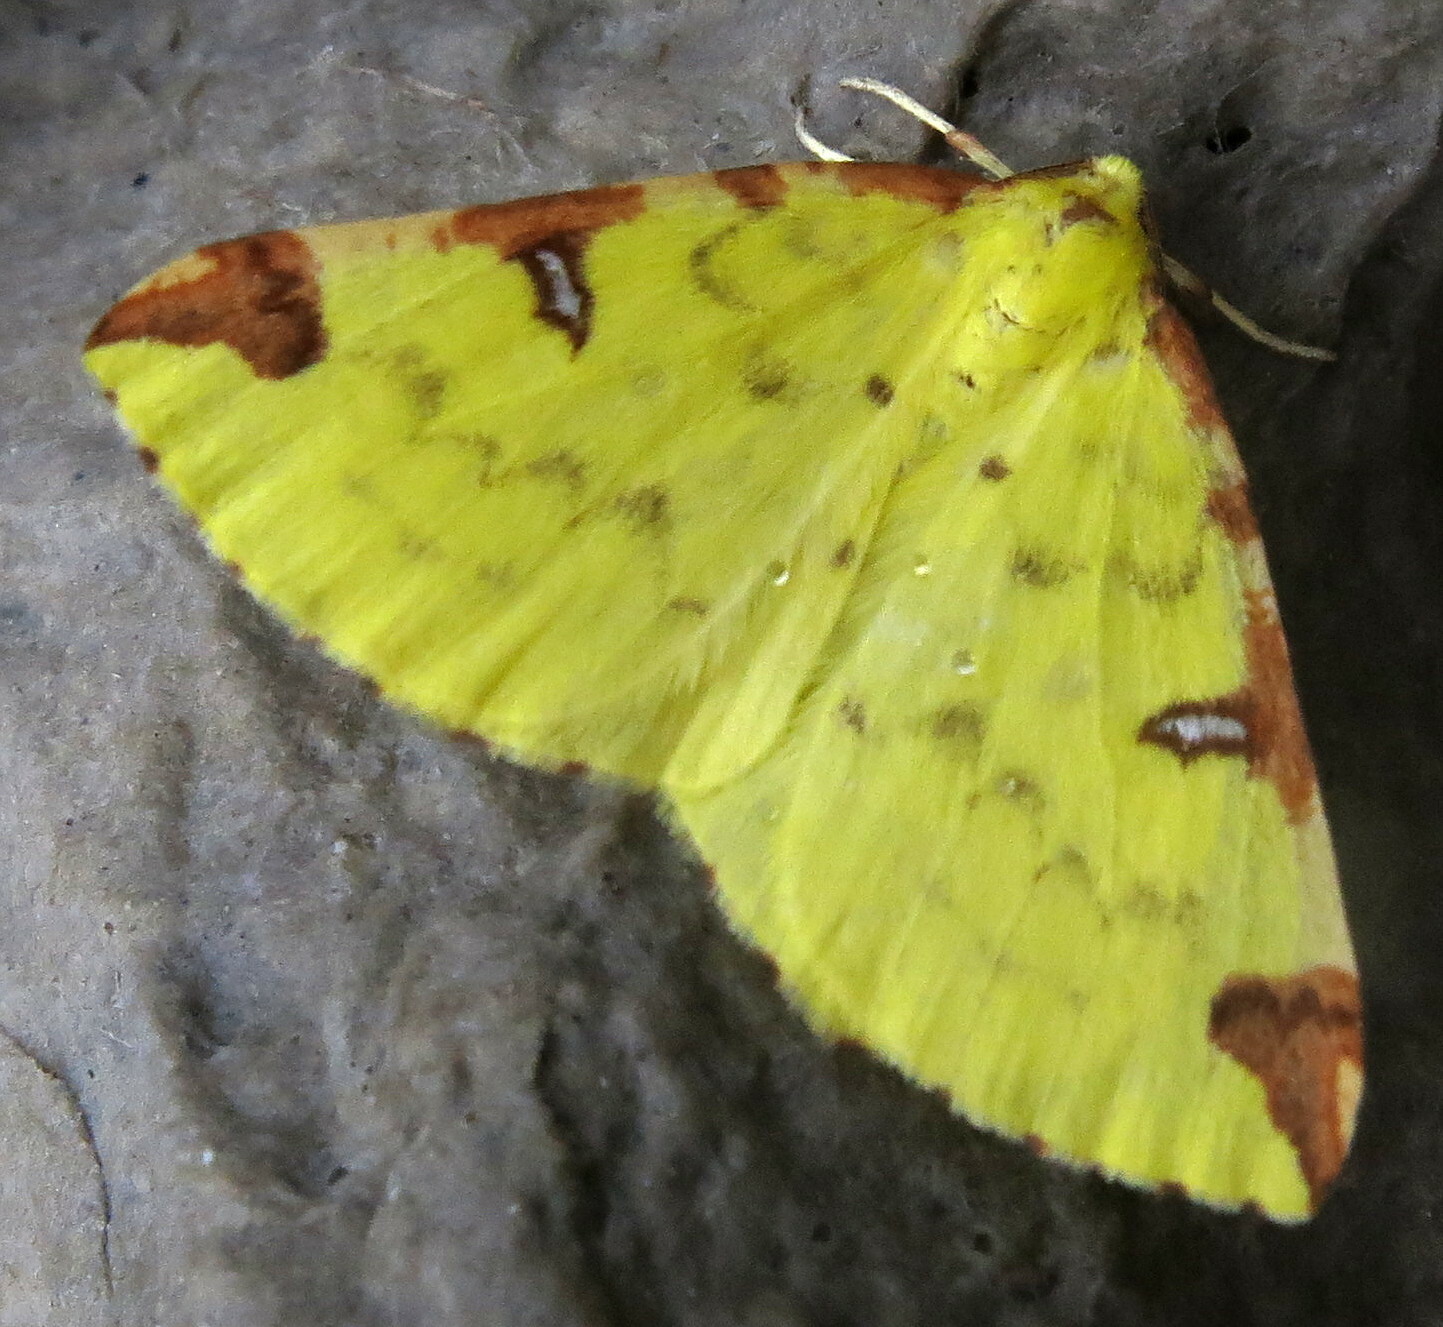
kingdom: Animalia
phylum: Arthropoda
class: Insecta
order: Lepidoptera
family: Geometridae
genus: Opisthograptis
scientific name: Opisthograptis luteolata
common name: Brimstone moth
